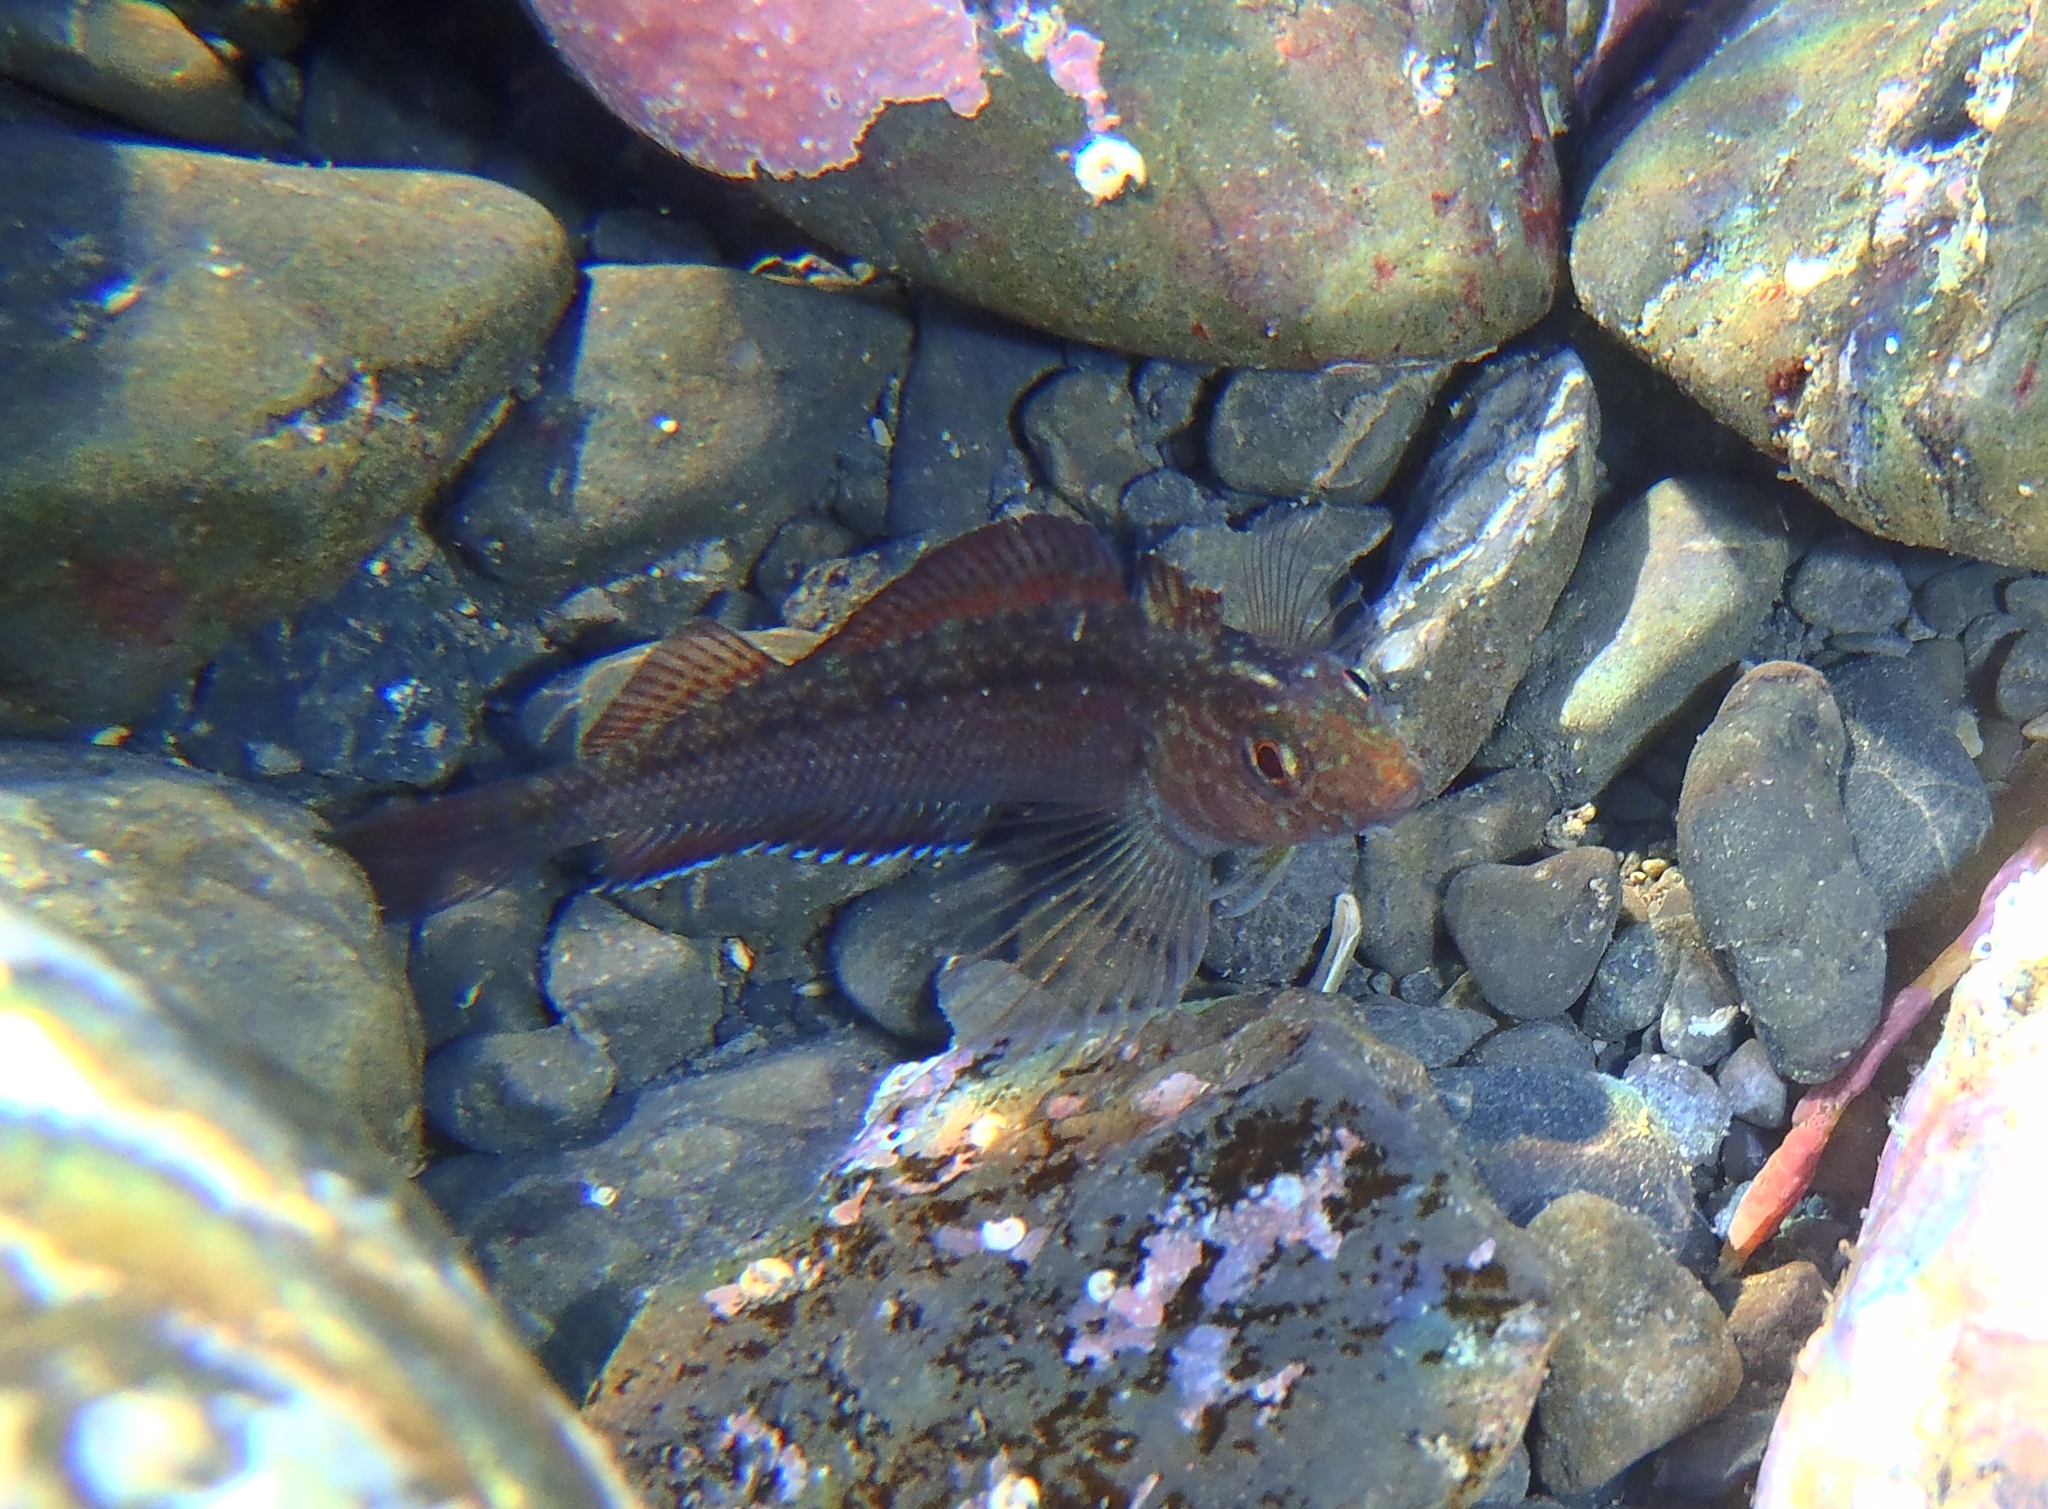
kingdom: Animalia
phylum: Chordata
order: Perciformes
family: Tripterygiidae
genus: Forsterygion
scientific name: Forsterygion lapillum
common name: Common triplefin
